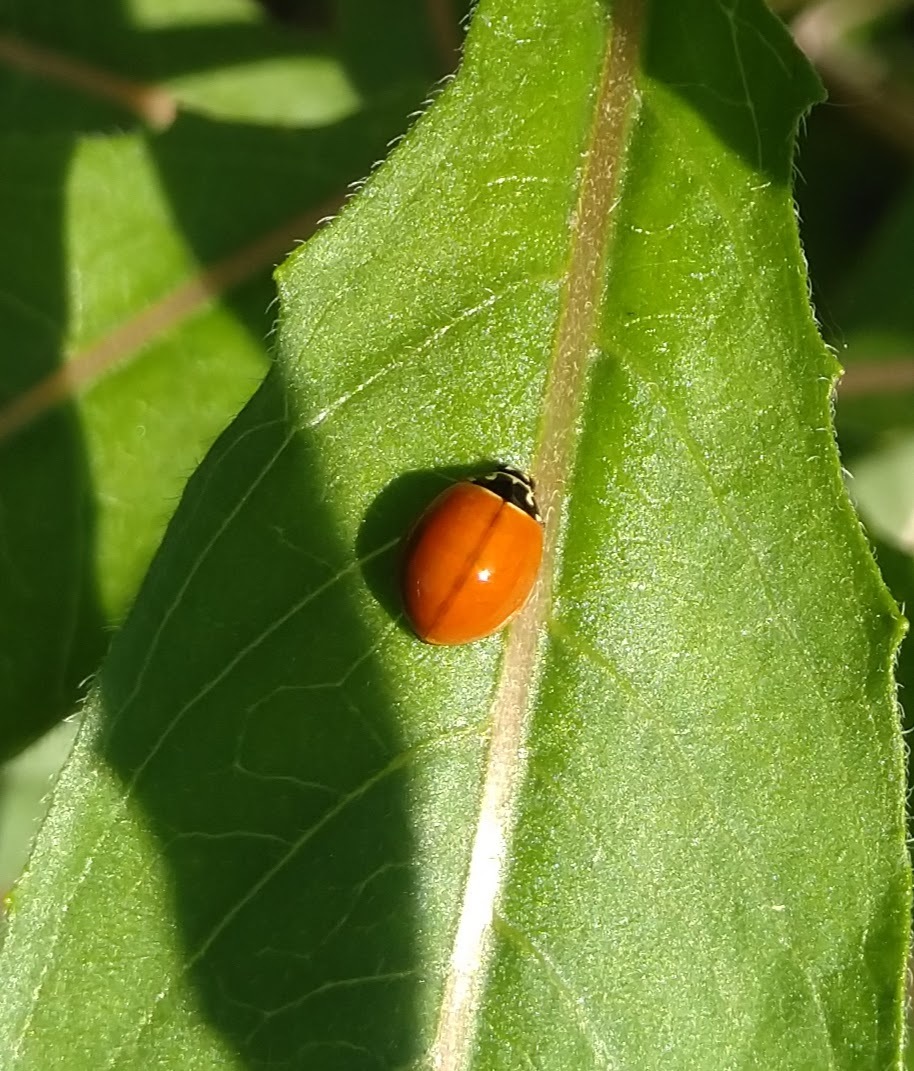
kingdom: Animalia
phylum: Arthropoda
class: Insecta
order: Coleoptera
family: Coccinellidae
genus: Cycloneda
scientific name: Cycloneda munda
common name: Polished lady beetle
